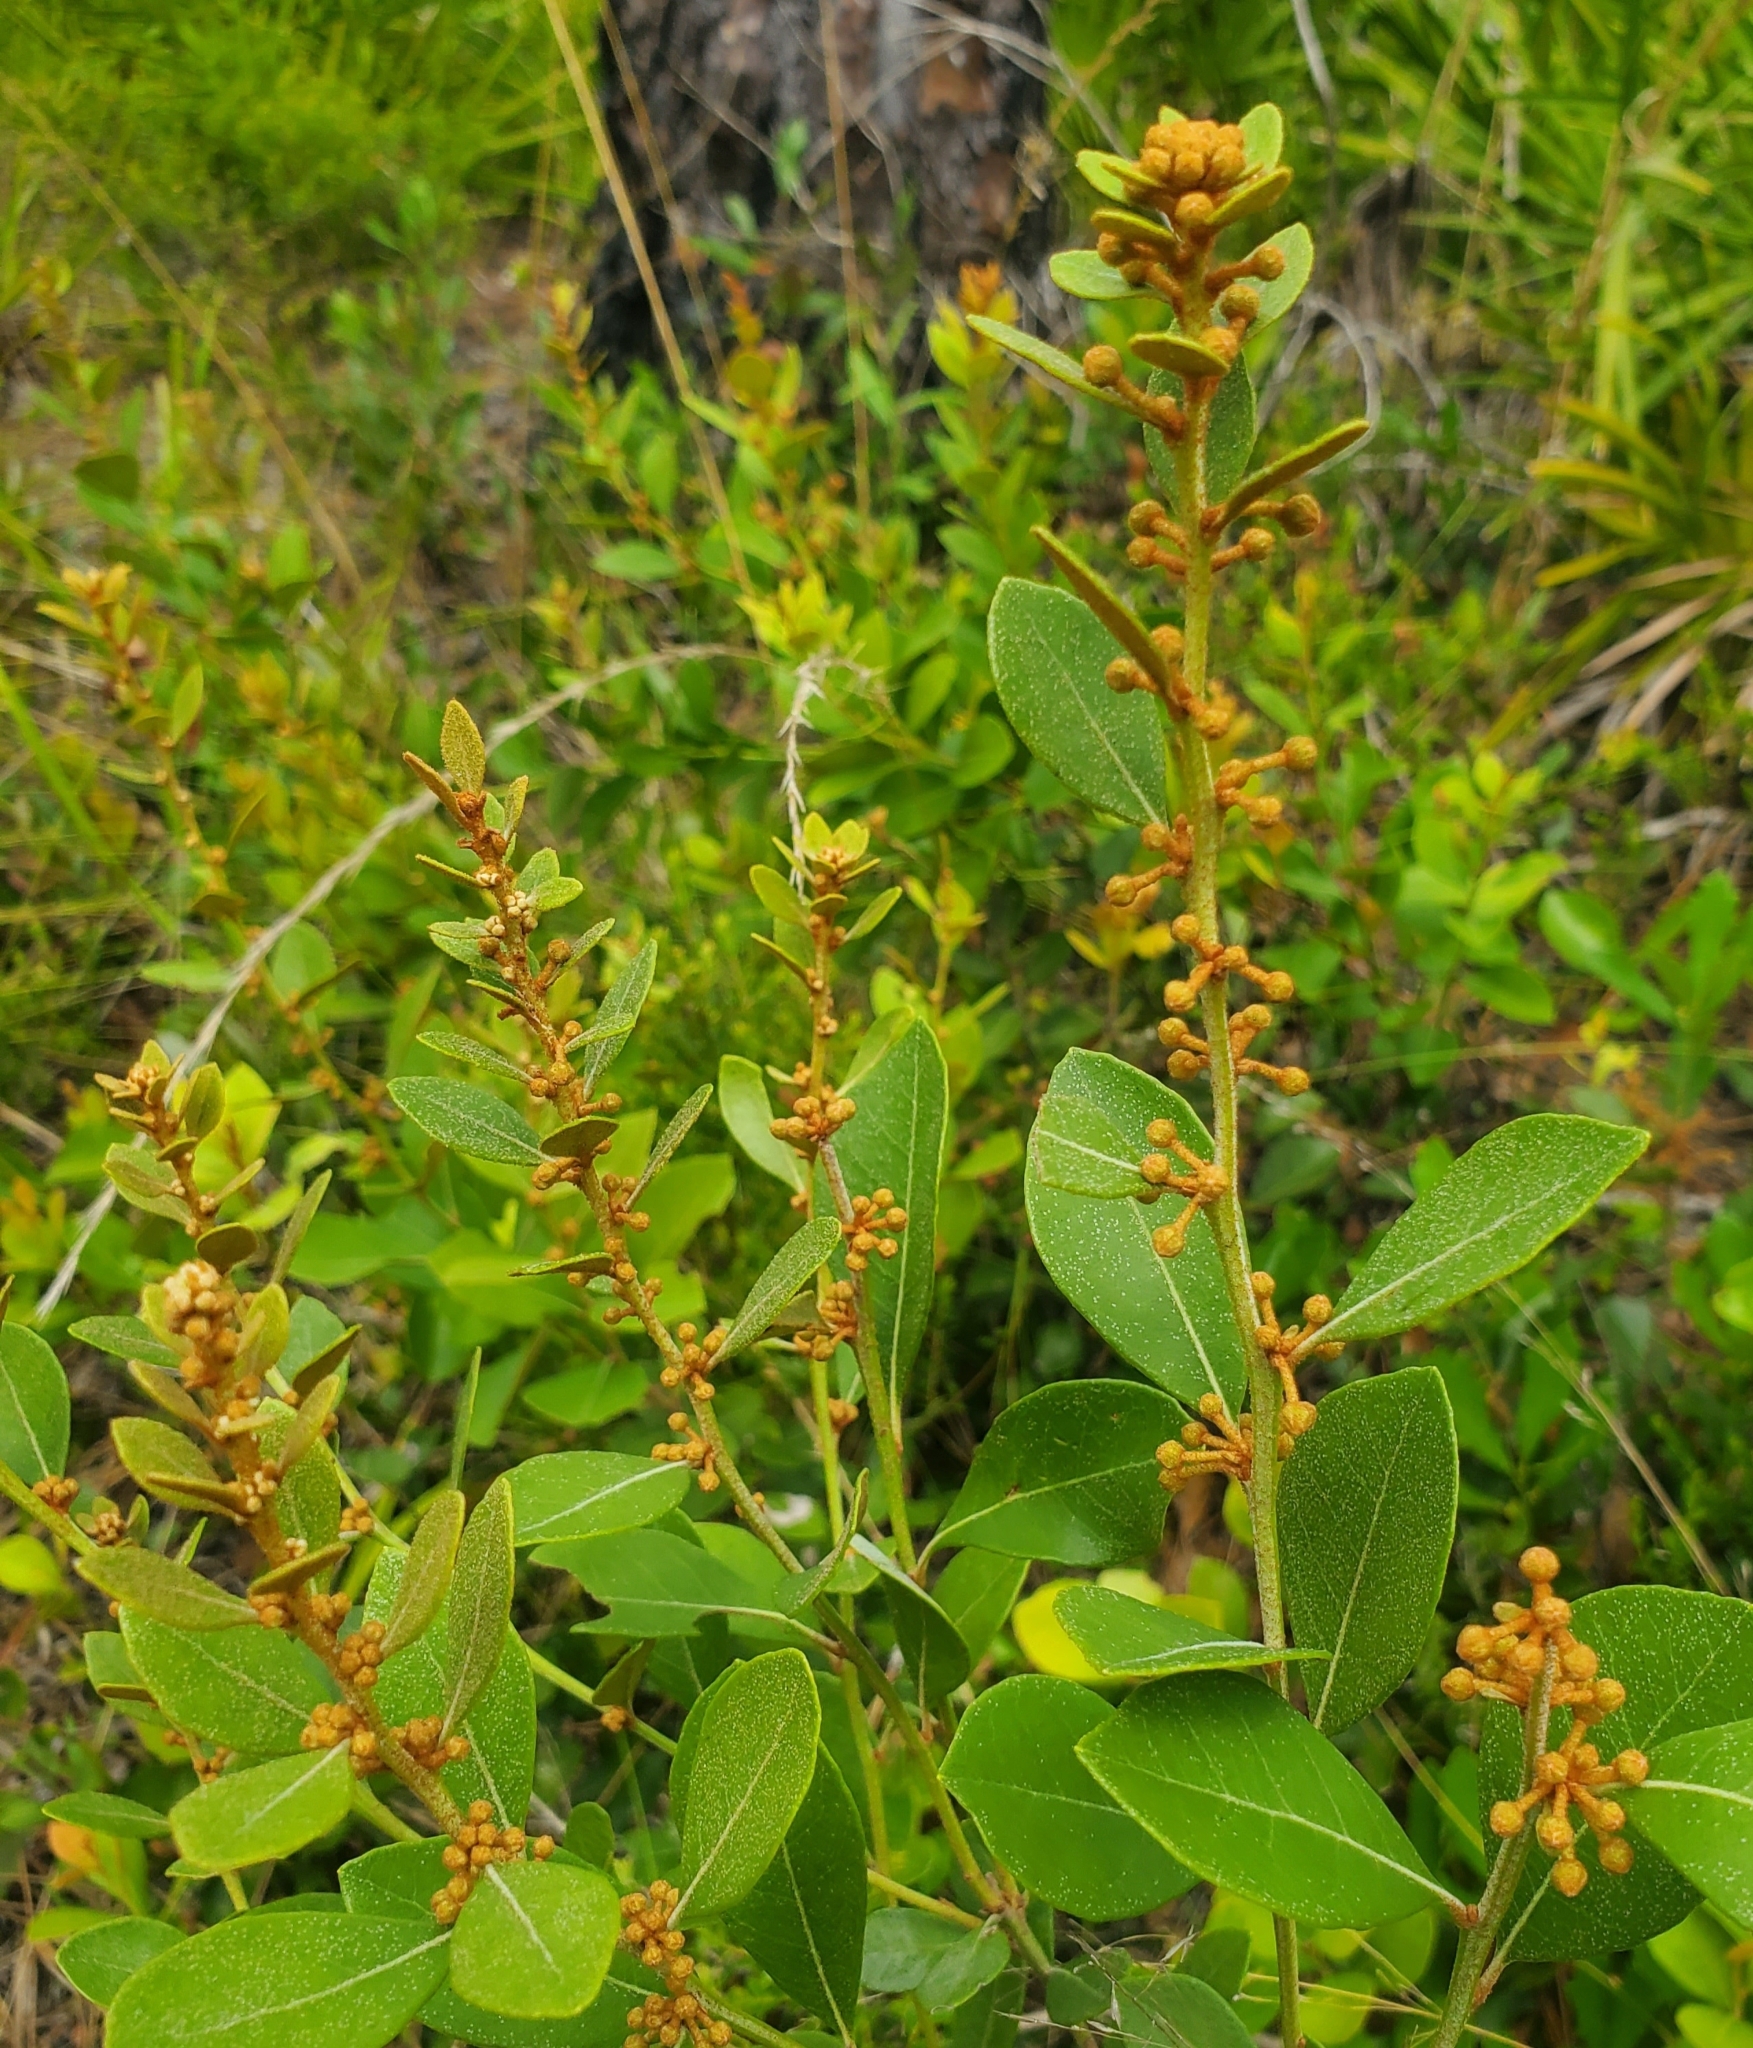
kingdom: Plantae
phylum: Tracheophyta
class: Magnoliopsida
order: Ericales
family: Ericaceae
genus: Lyonia
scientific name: Lyonia fruticosa
